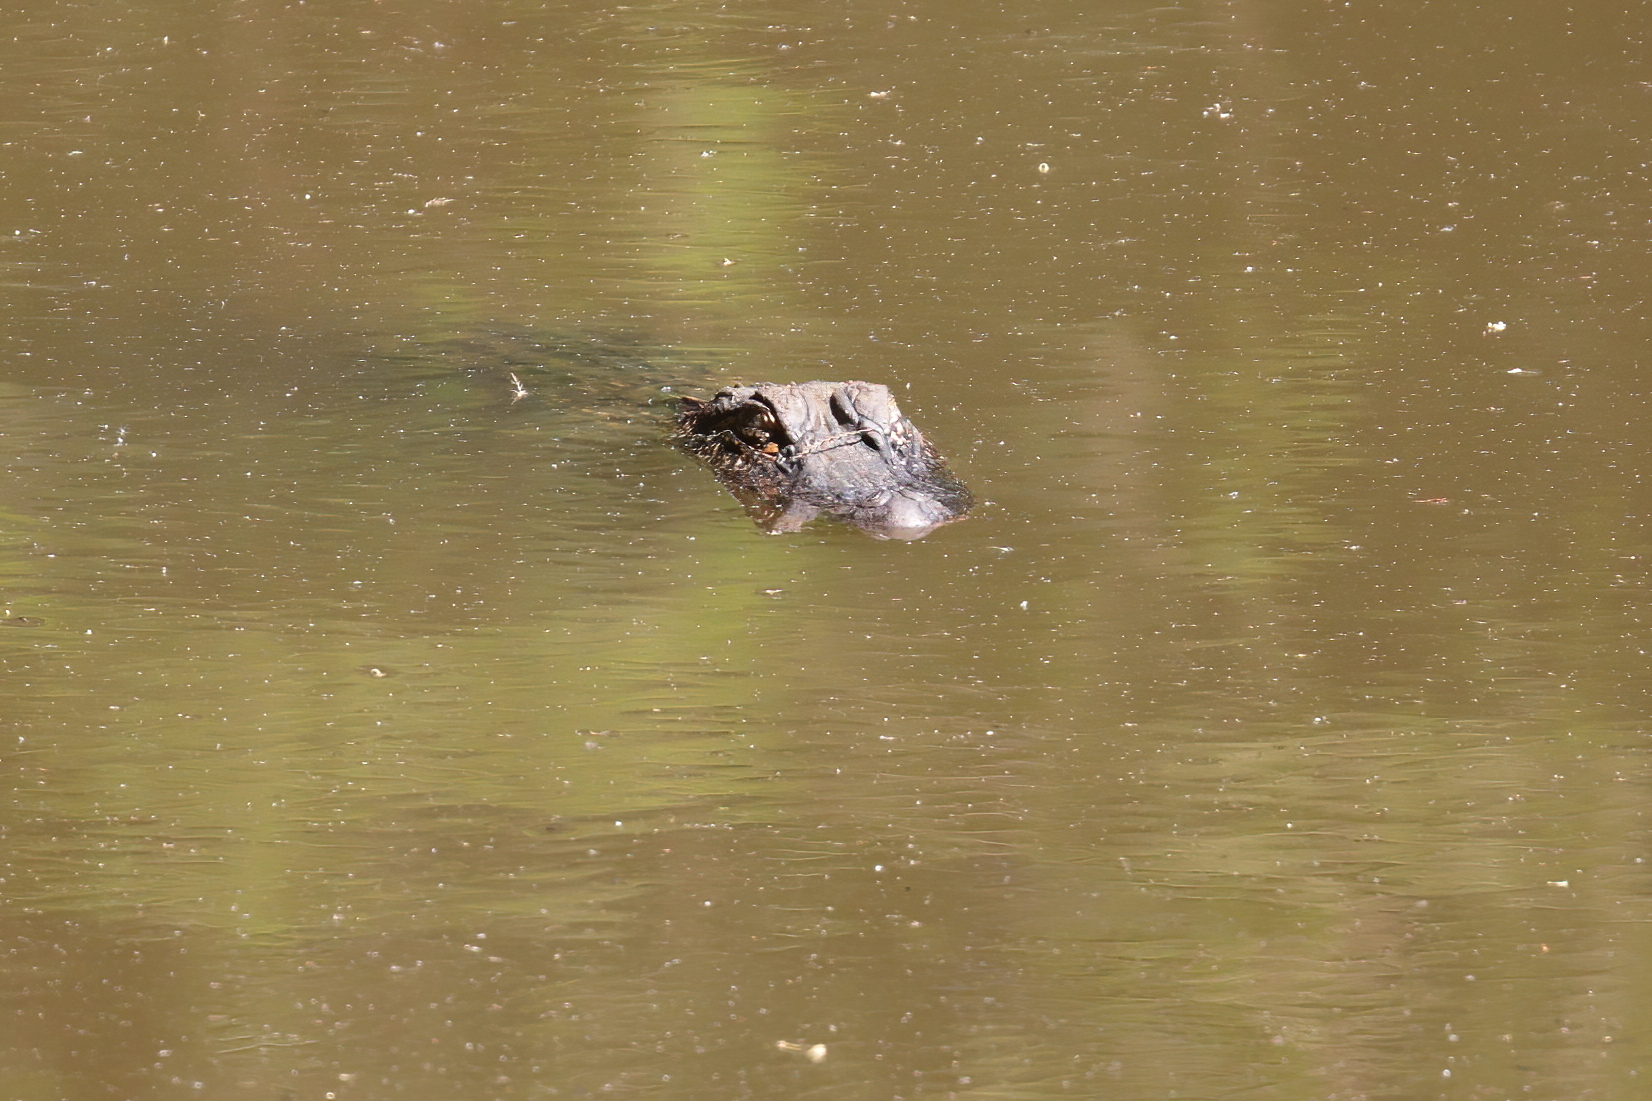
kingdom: Animalia
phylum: Chordata
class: Crocodylia
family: Alligatoridae
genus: Alligator
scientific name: Alligator mississippiensis
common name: American alligator
